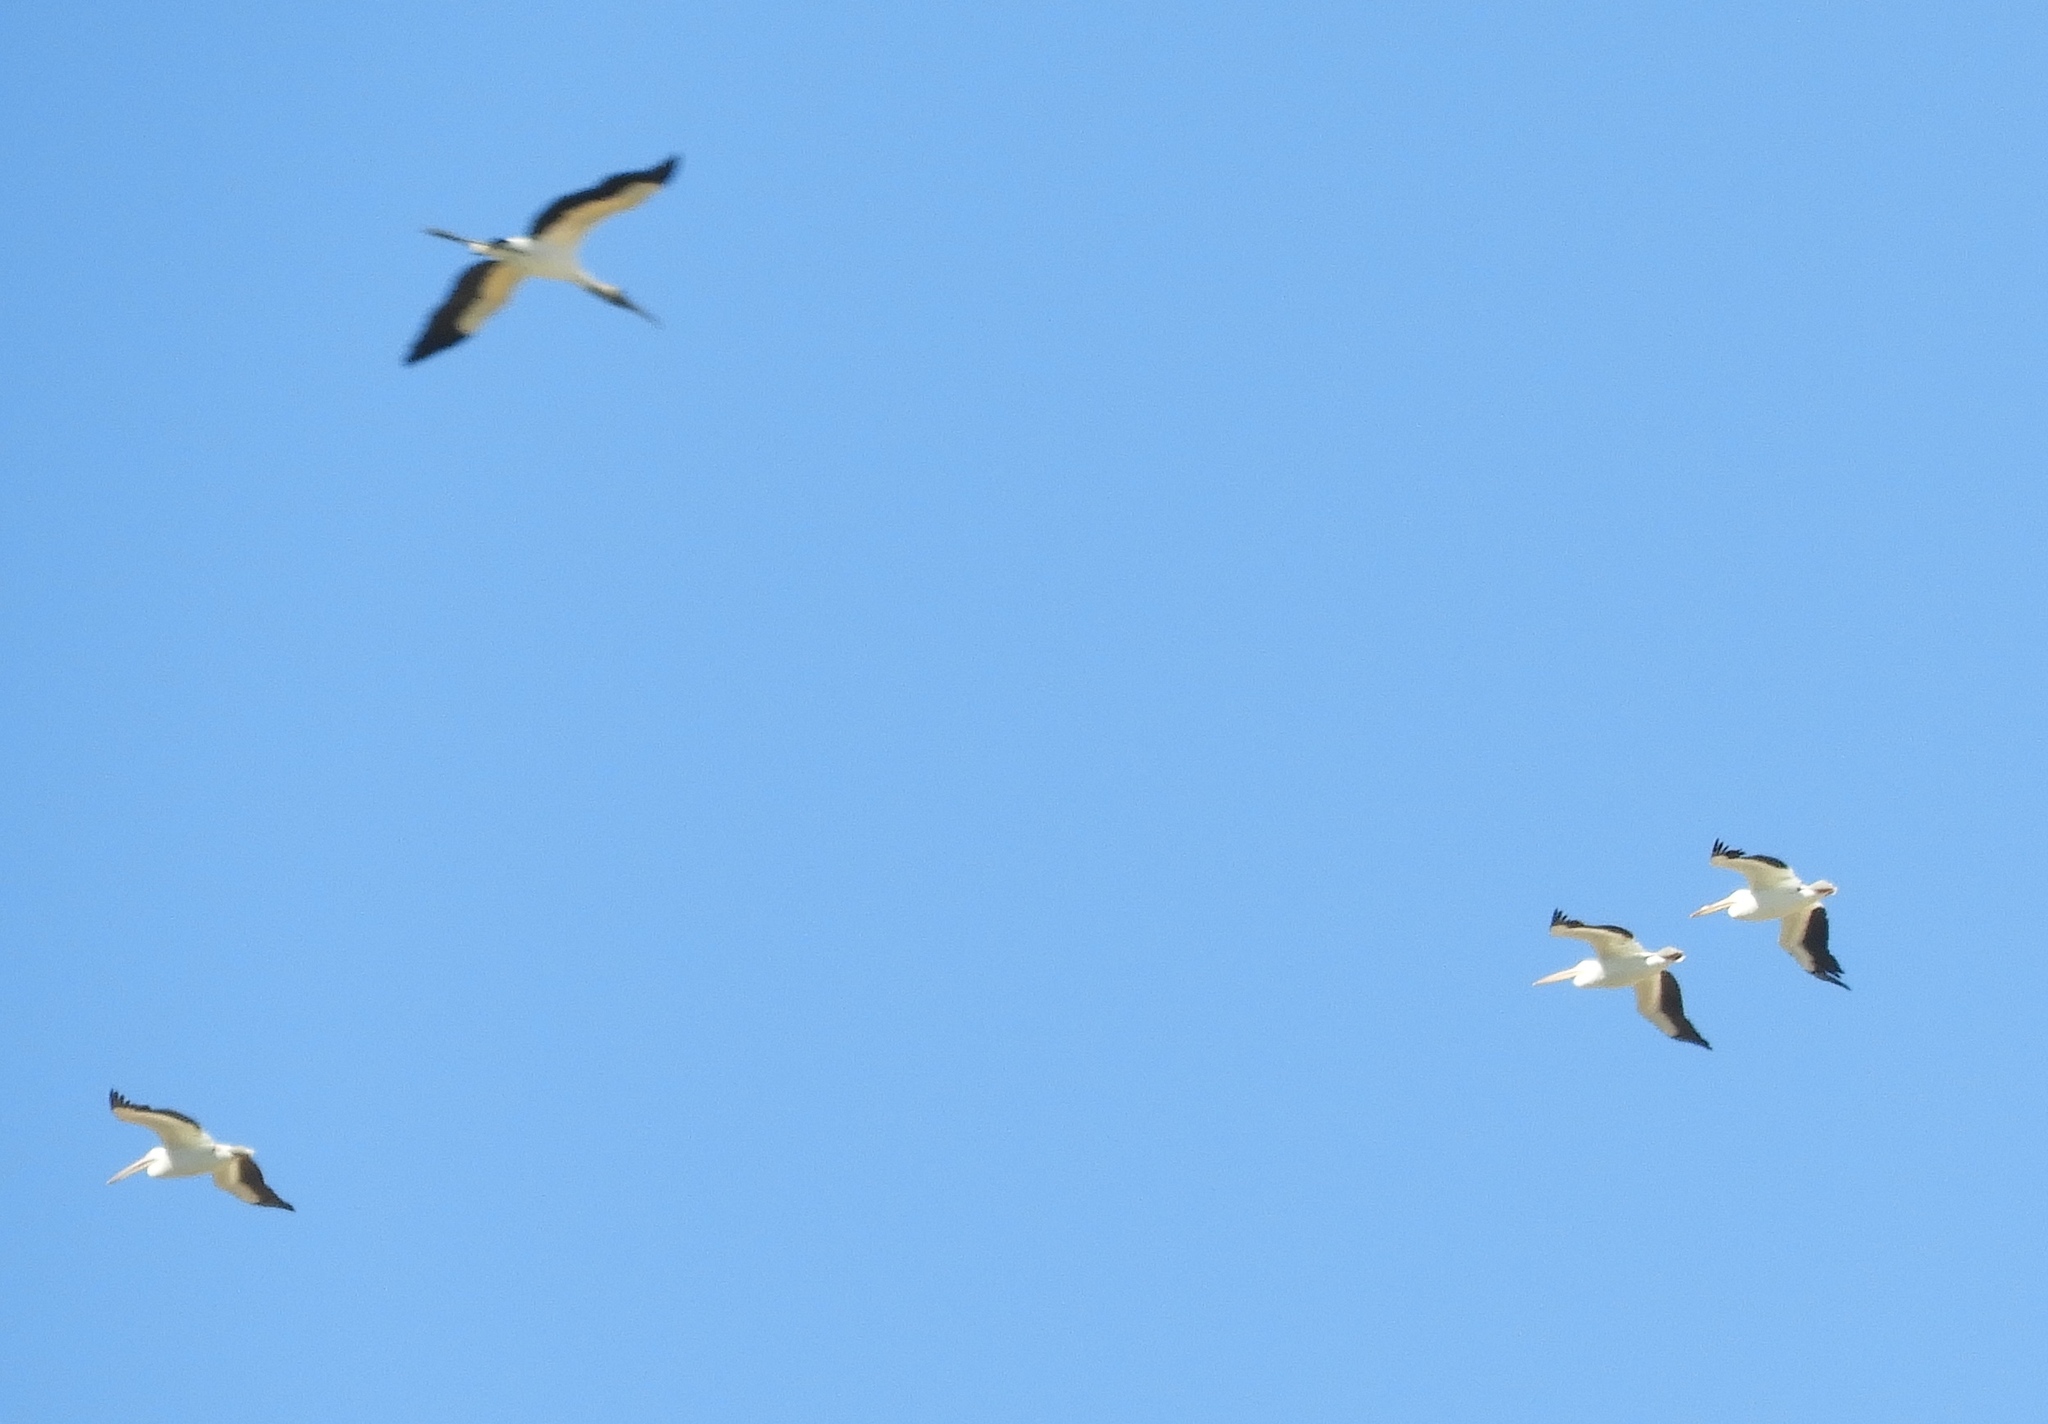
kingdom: Animalia
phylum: Chordata
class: Aves
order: Ciconiiformes
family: Ciconiidae
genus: Mycteria
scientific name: Mycteria americana
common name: Wood stork
